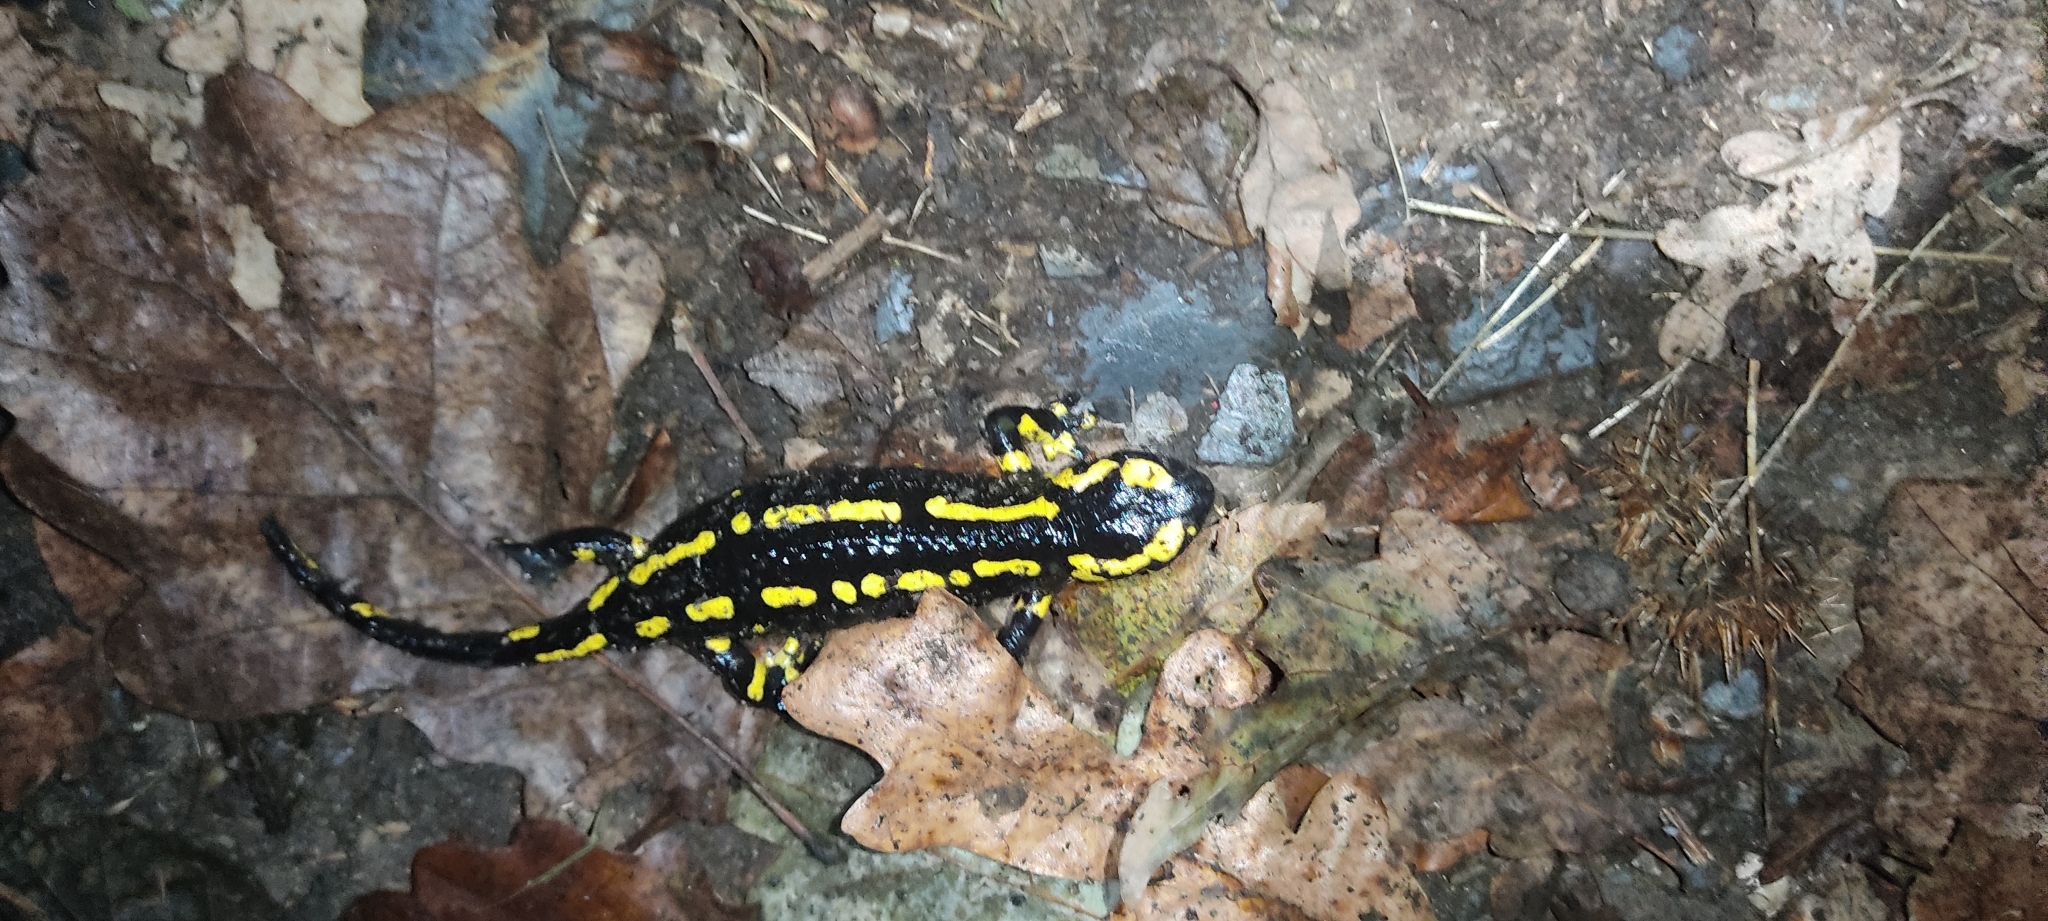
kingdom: Animalia
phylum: Chordata
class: Amphibia
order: Caudata
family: Salamandridae
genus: Salamandra
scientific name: Salamandra salamandra
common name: Fire salamander
